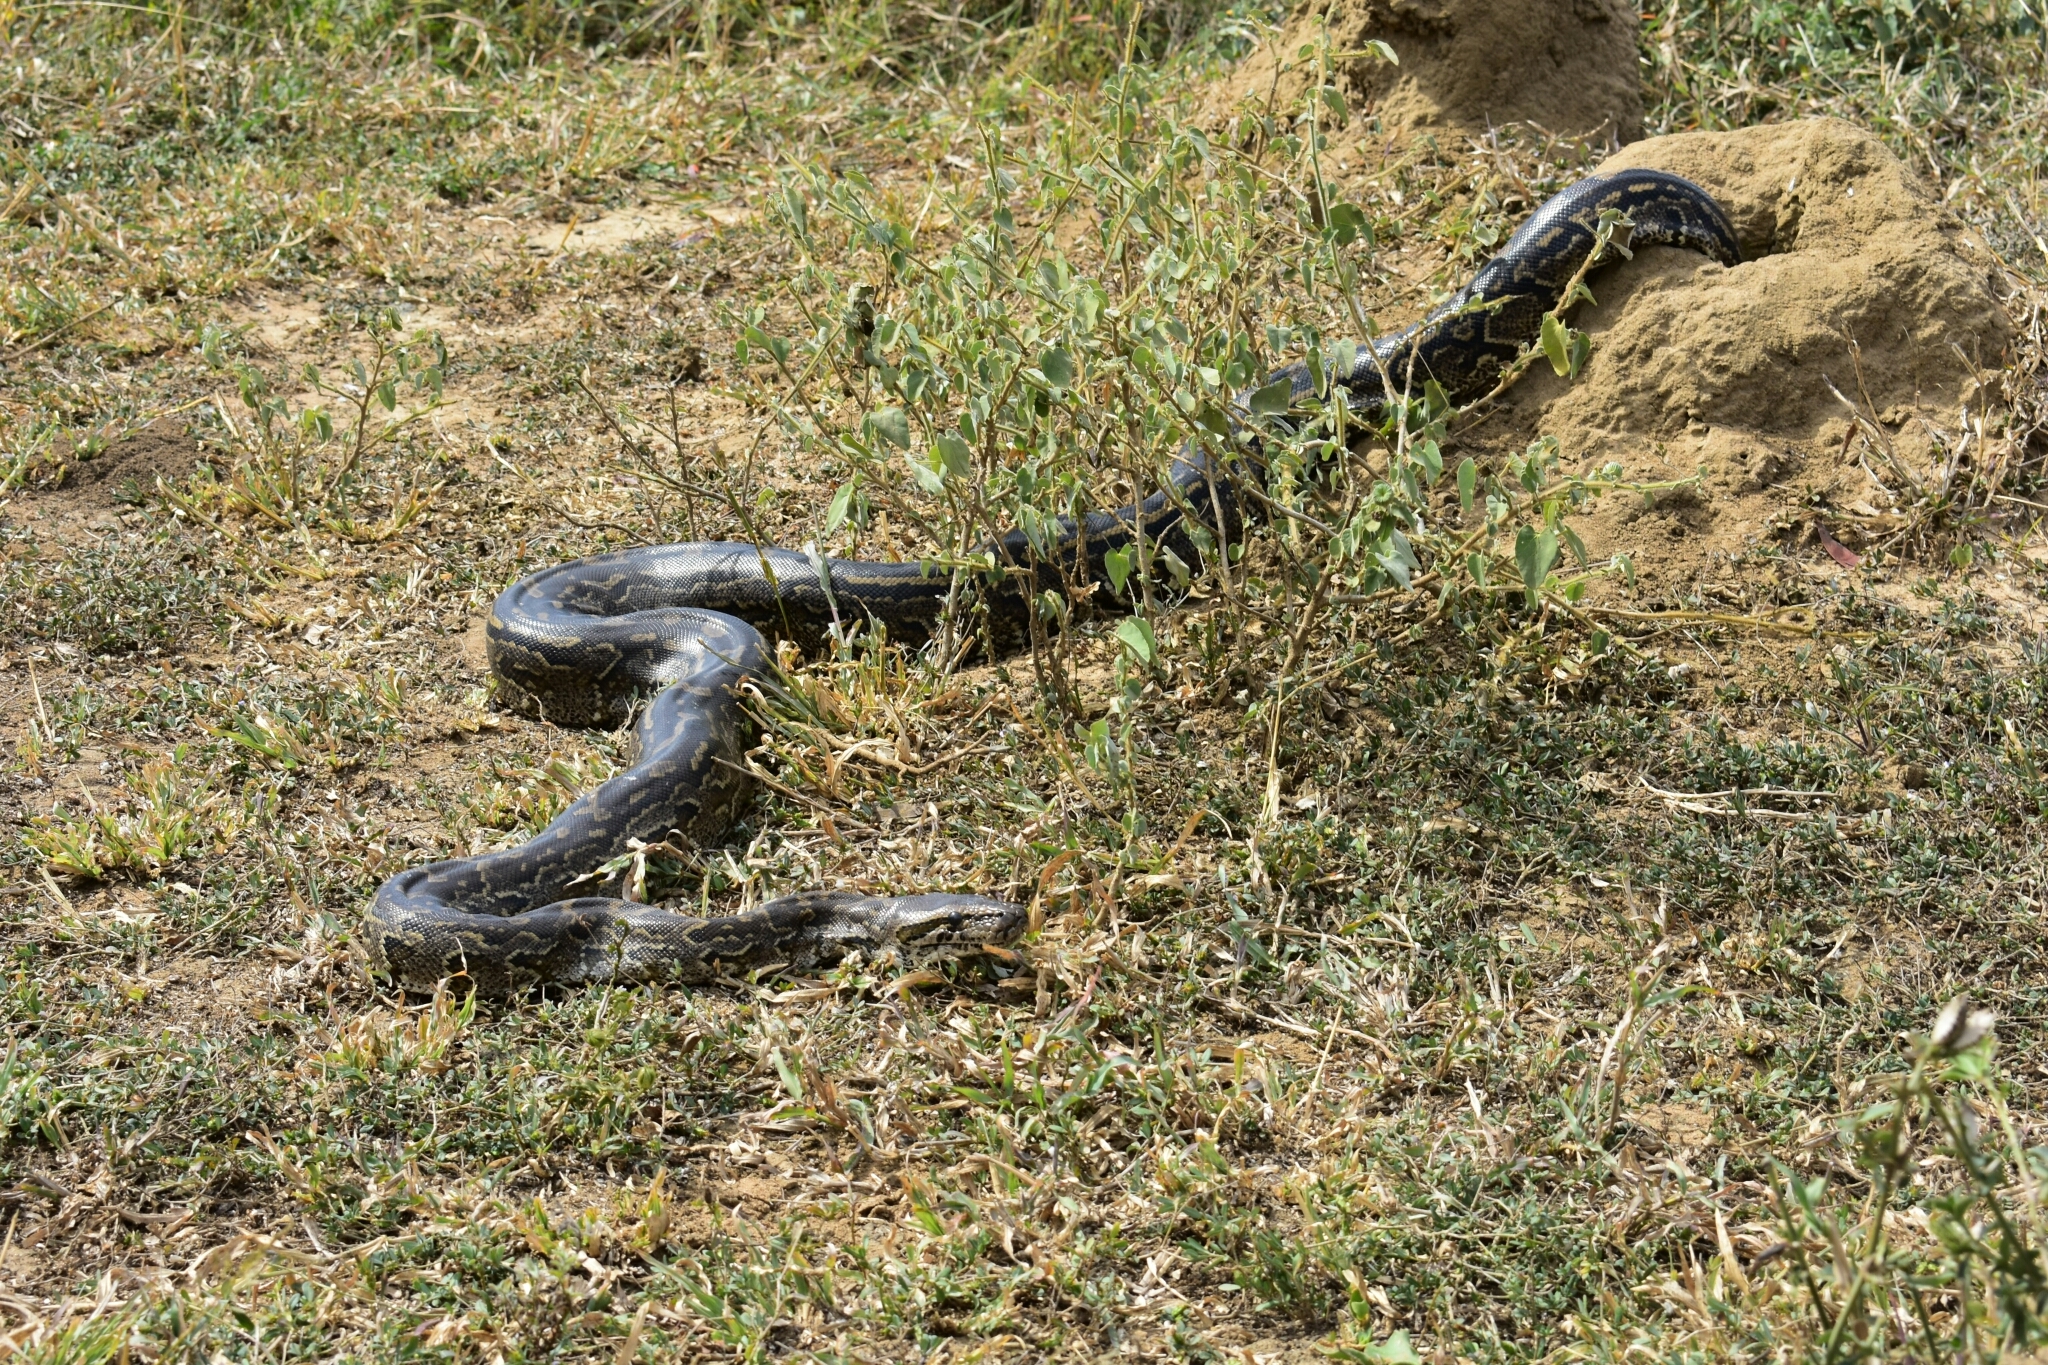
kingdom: Animalia
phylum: Chordata
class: Squamata
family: Pythonidae
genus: Python
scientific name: Python natalensis
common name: Southern african rock python
